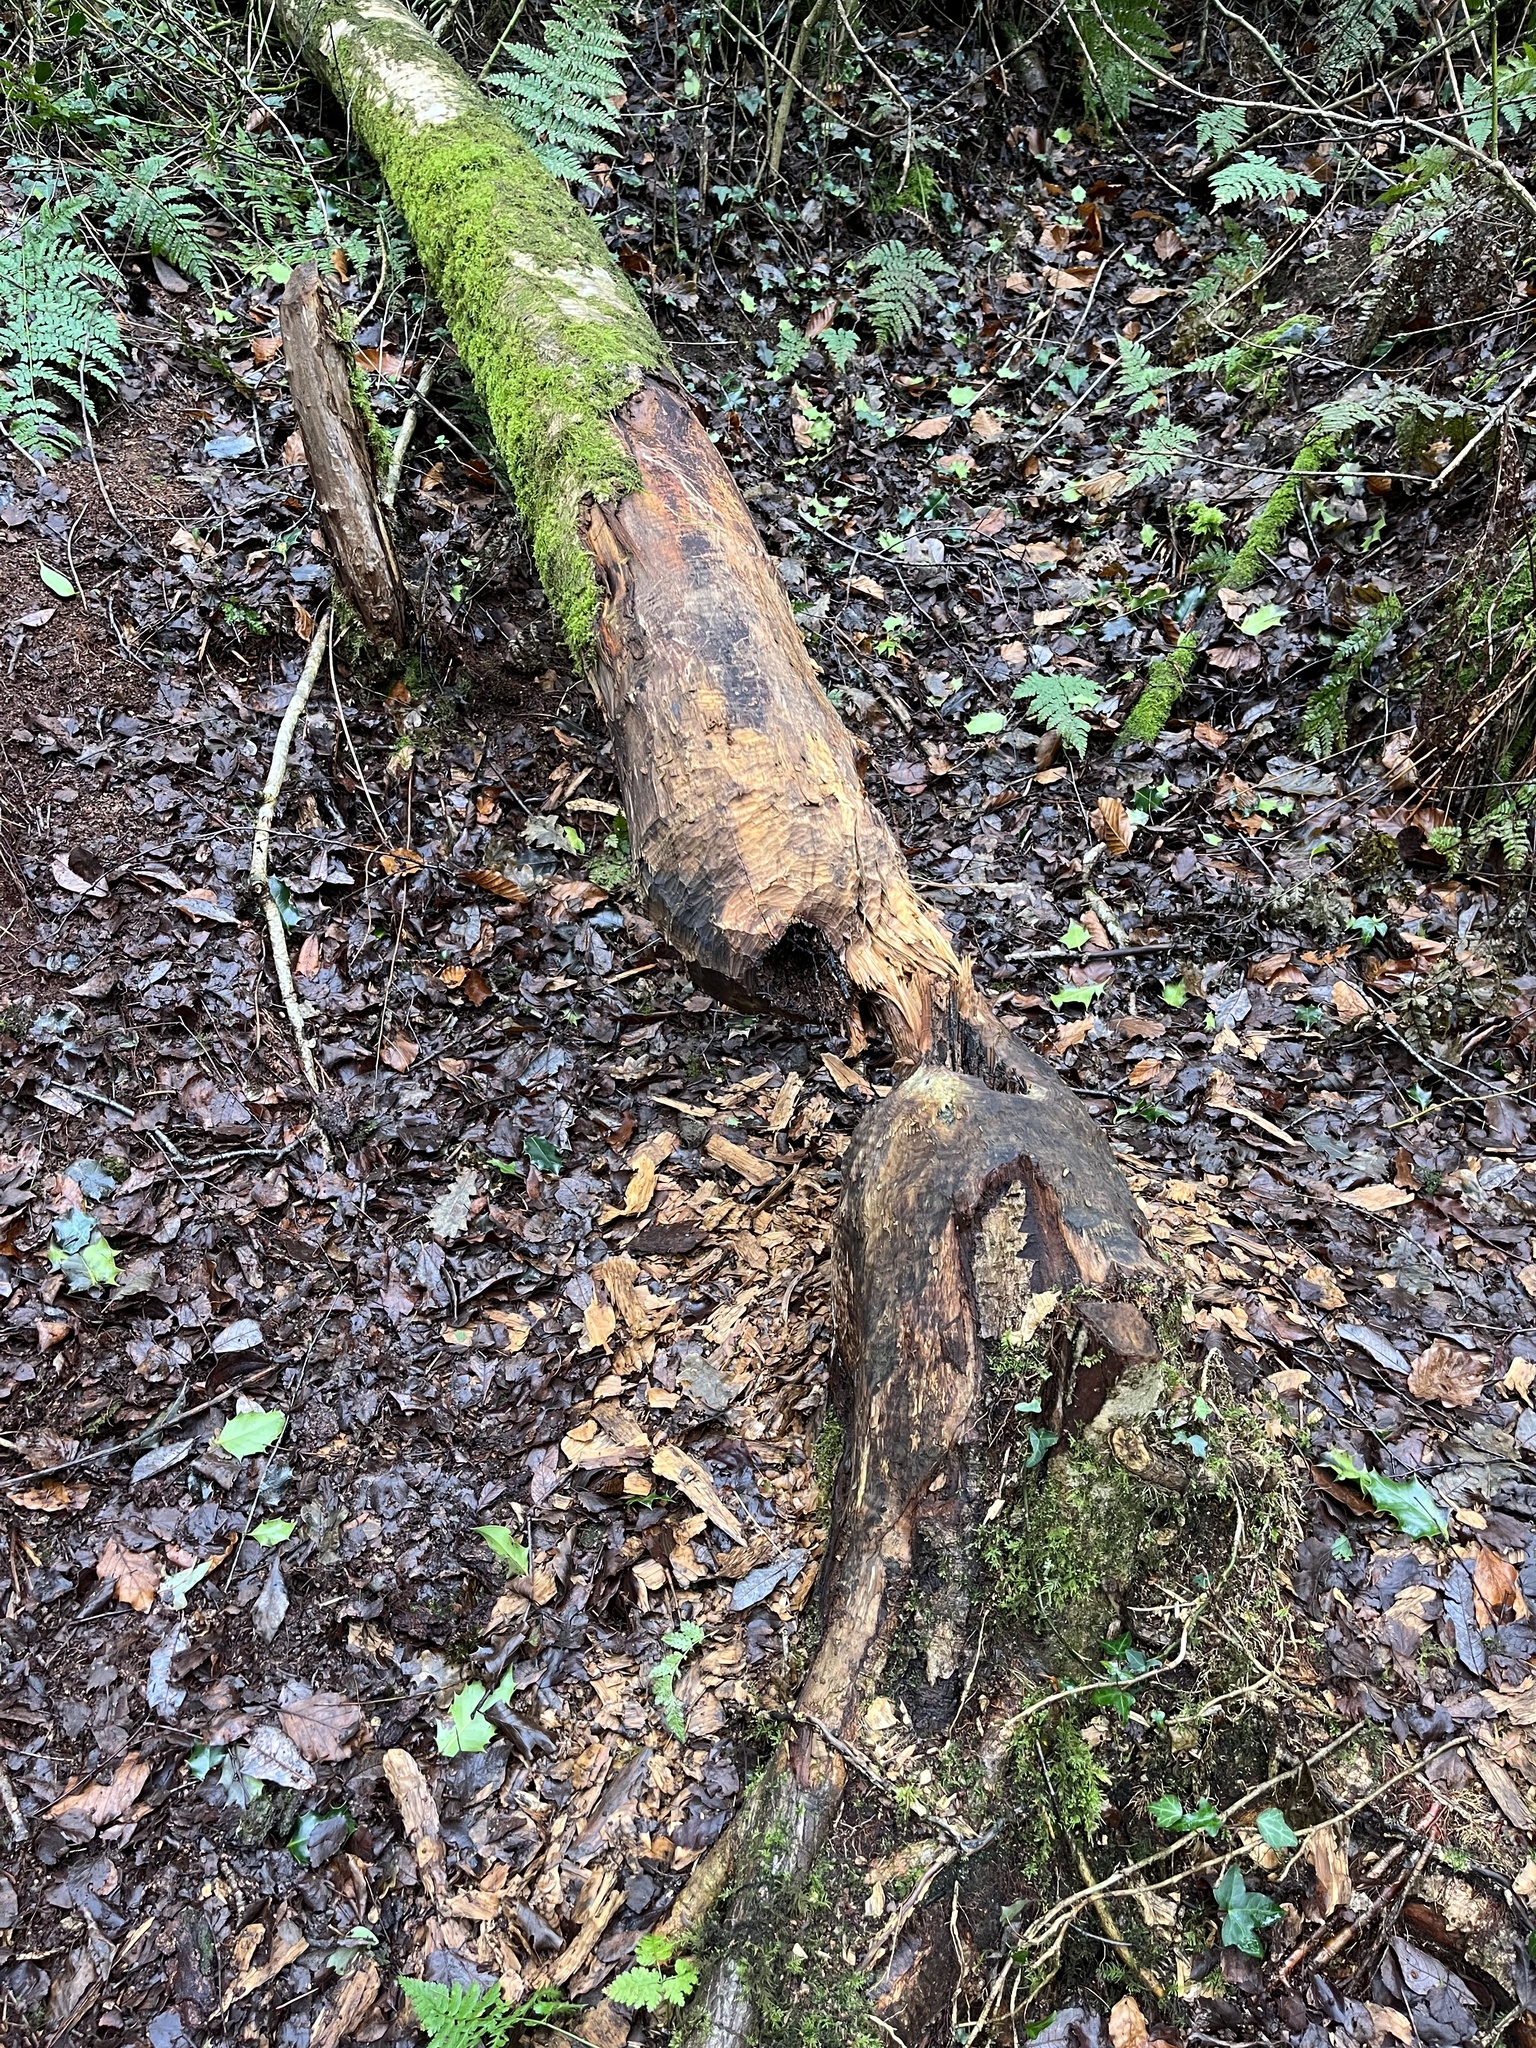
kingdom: Animalia
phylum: Chordata
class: Mammalia
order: Rodentia
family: Castoridae
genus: Castor
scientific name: Castor fiber
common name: Eurasian beaver
